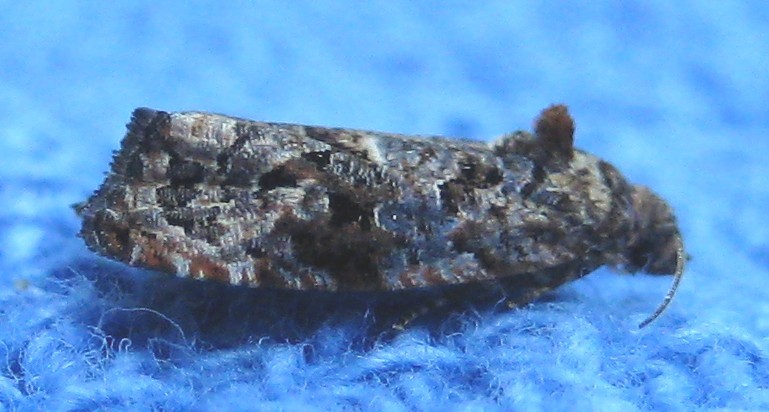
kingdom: Animalia
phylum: Arthropoda
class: Insecta
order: Lepidoptera
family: Tortricidae
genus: Endothenia
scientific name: Endothenia hebesana
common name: Verbena bud moth
